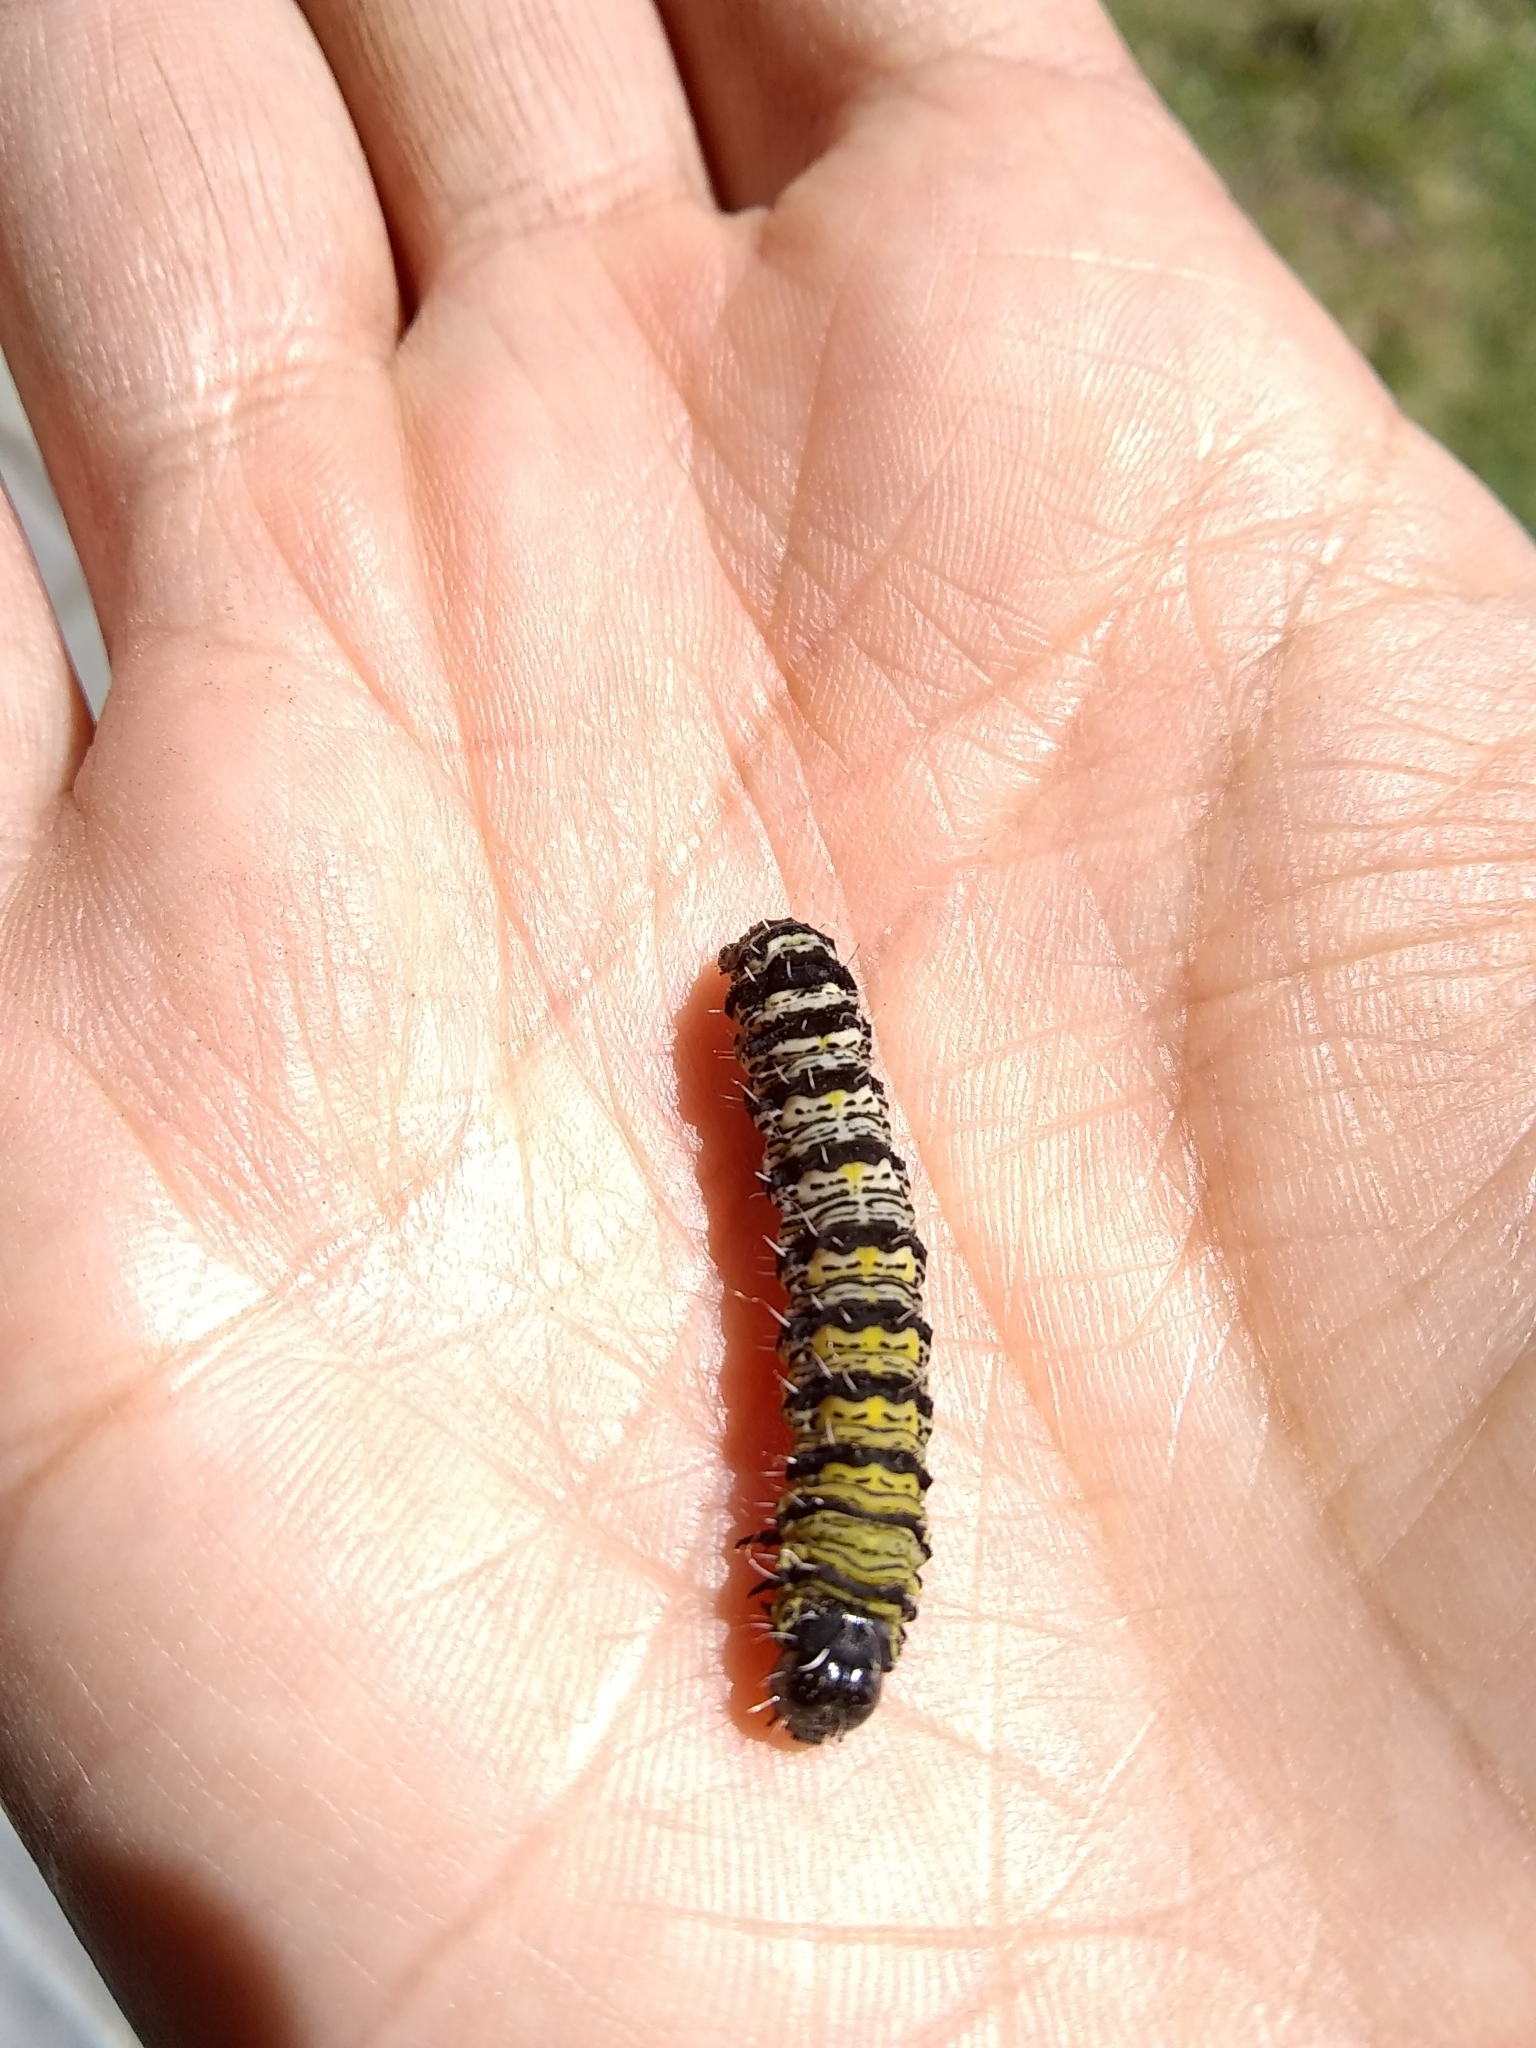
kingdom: Animalia
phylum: Arthropoda
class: Insecta
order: Lepidoptera
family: Noctuidae
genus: Alypiodes
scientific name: Alypiodes bimaculata
